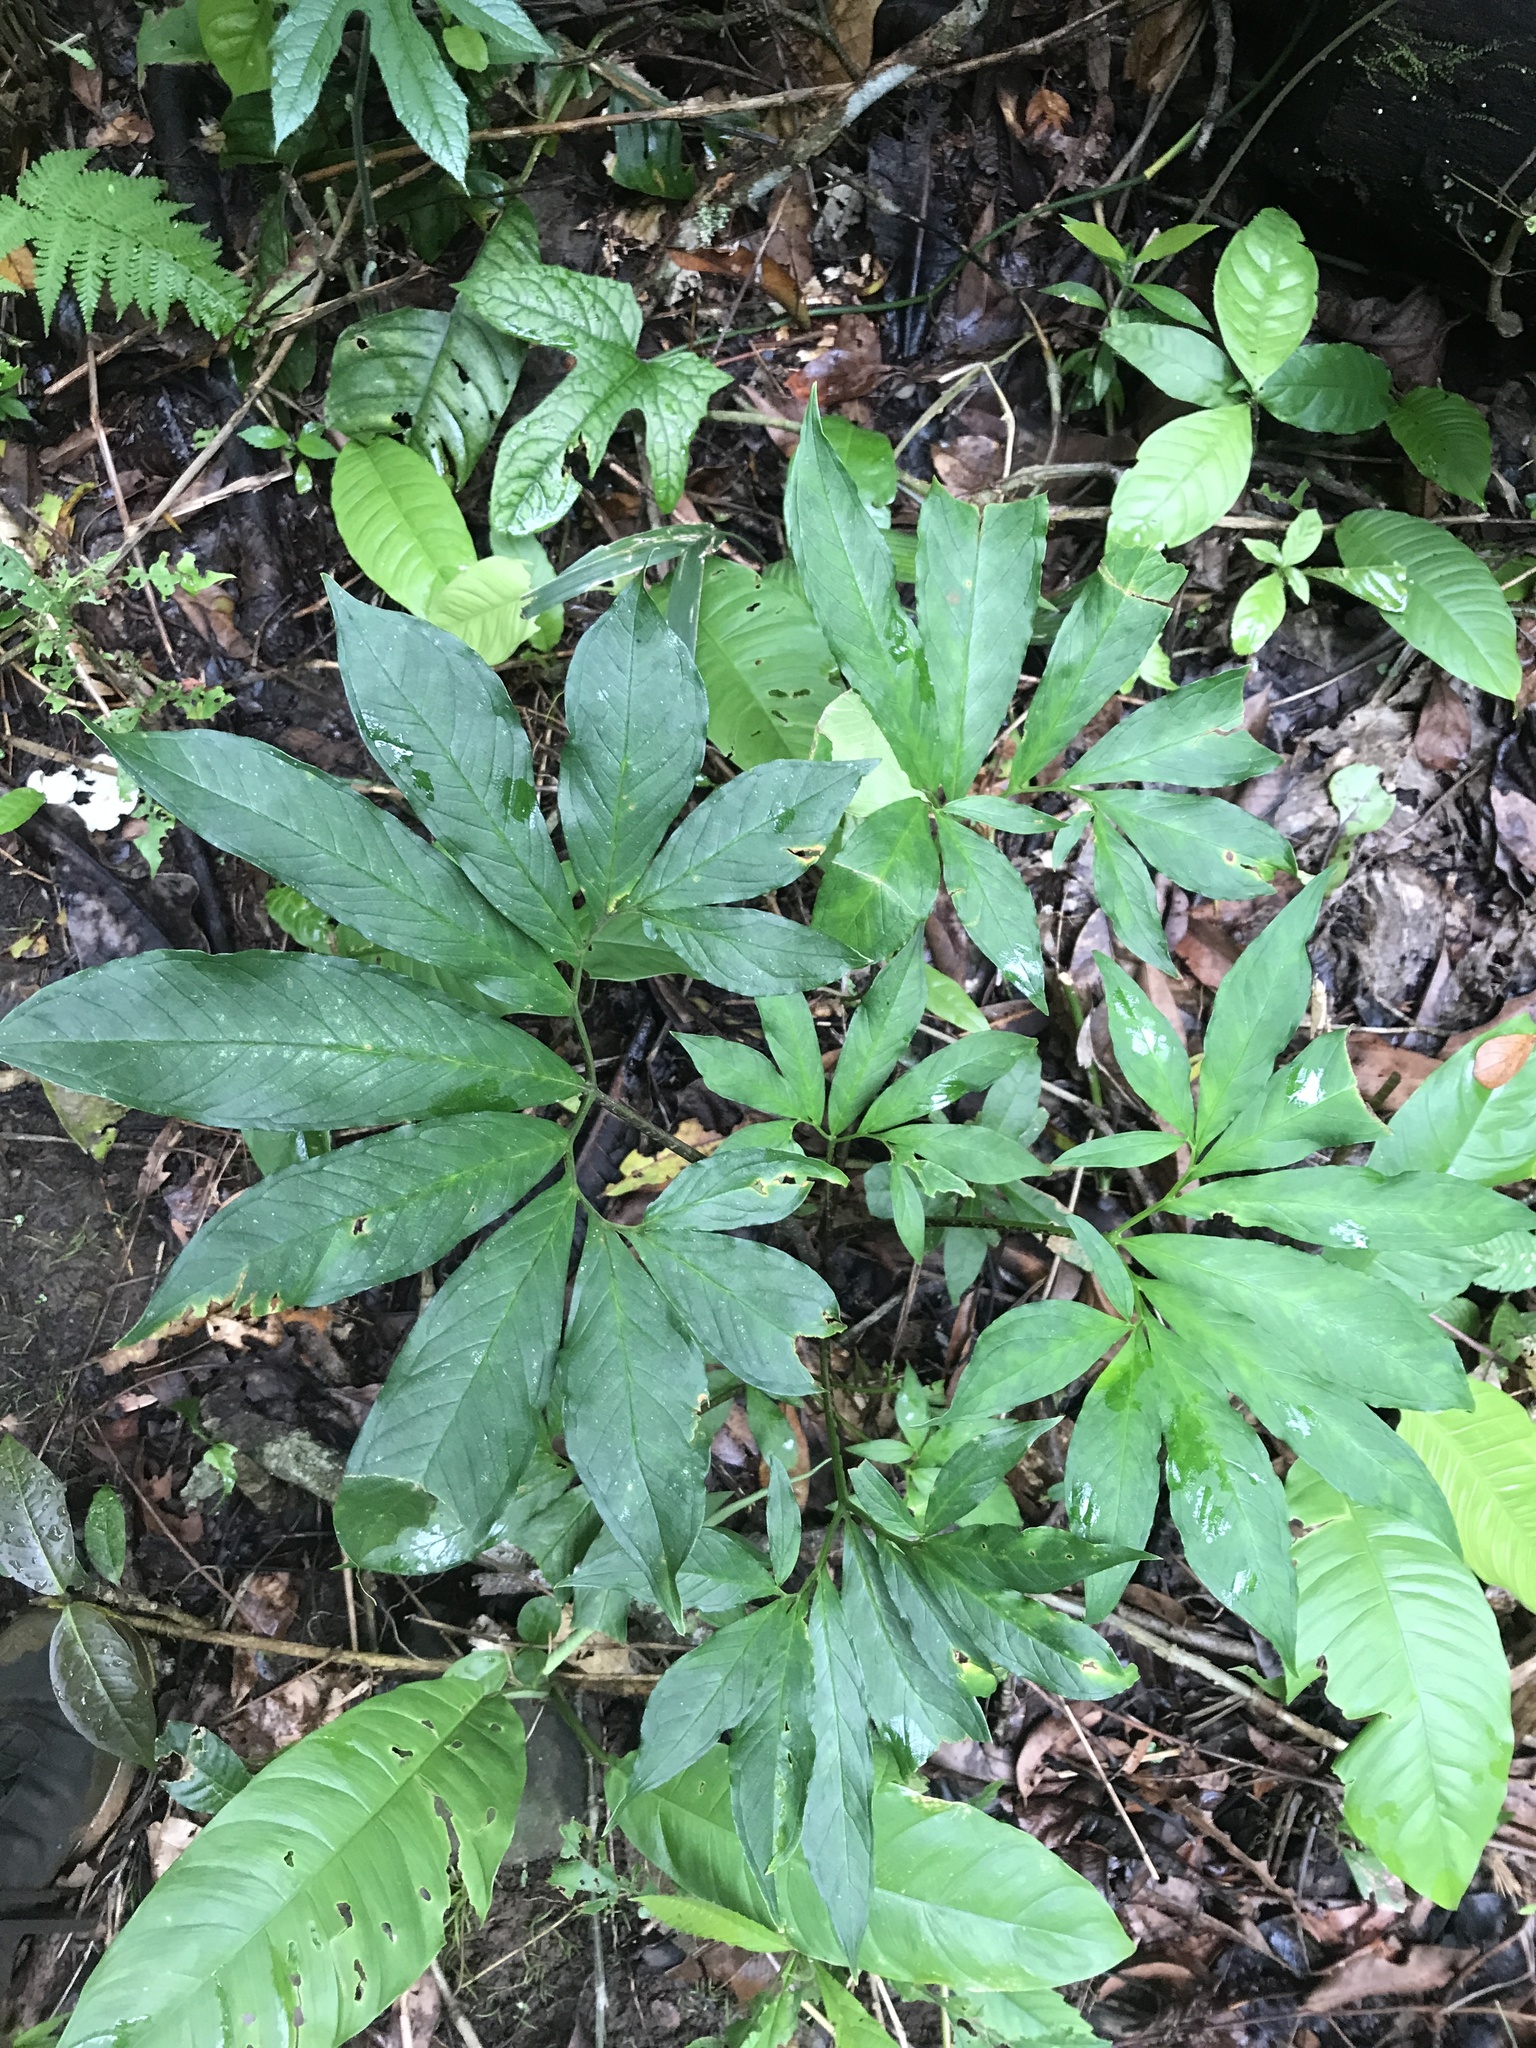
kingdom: Plantae
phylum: Tracheophyta
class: Liliopsida
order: Alismatales
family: Araceae
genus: Xanthosoma
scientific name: Xanthosoma helleborifolium
